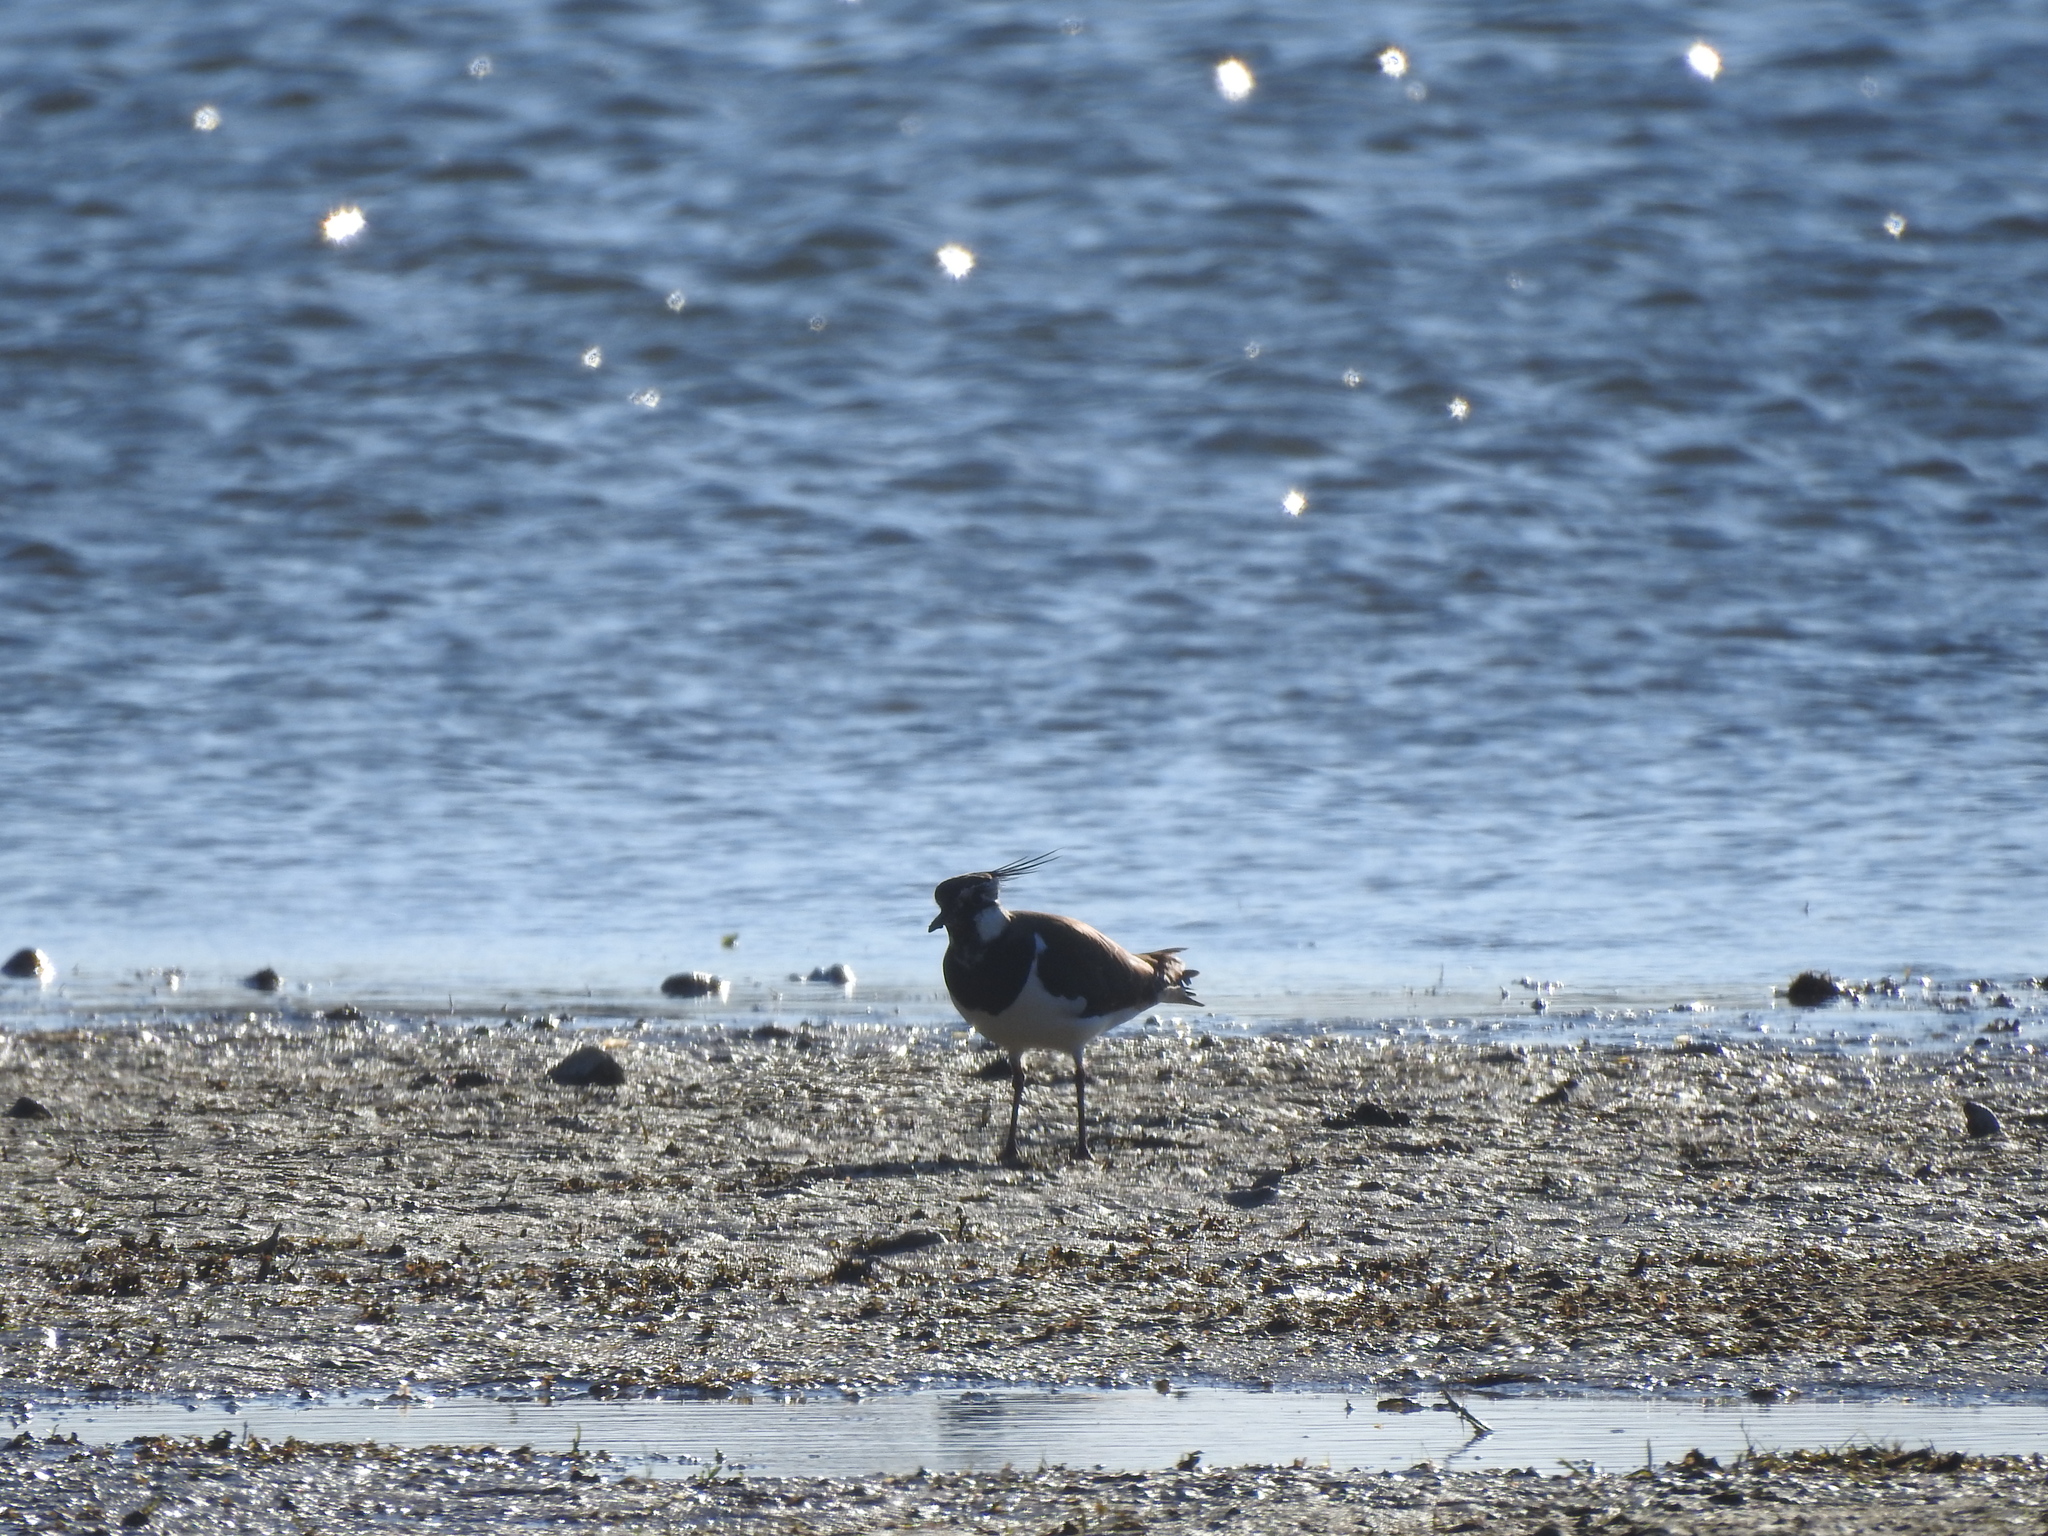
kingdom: Animalia
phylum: Chordata
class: Aves
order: Charadriiformes
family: Charadriidae
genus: Vanellus
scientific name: Vanellus vanellus
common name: Northern lapwing
